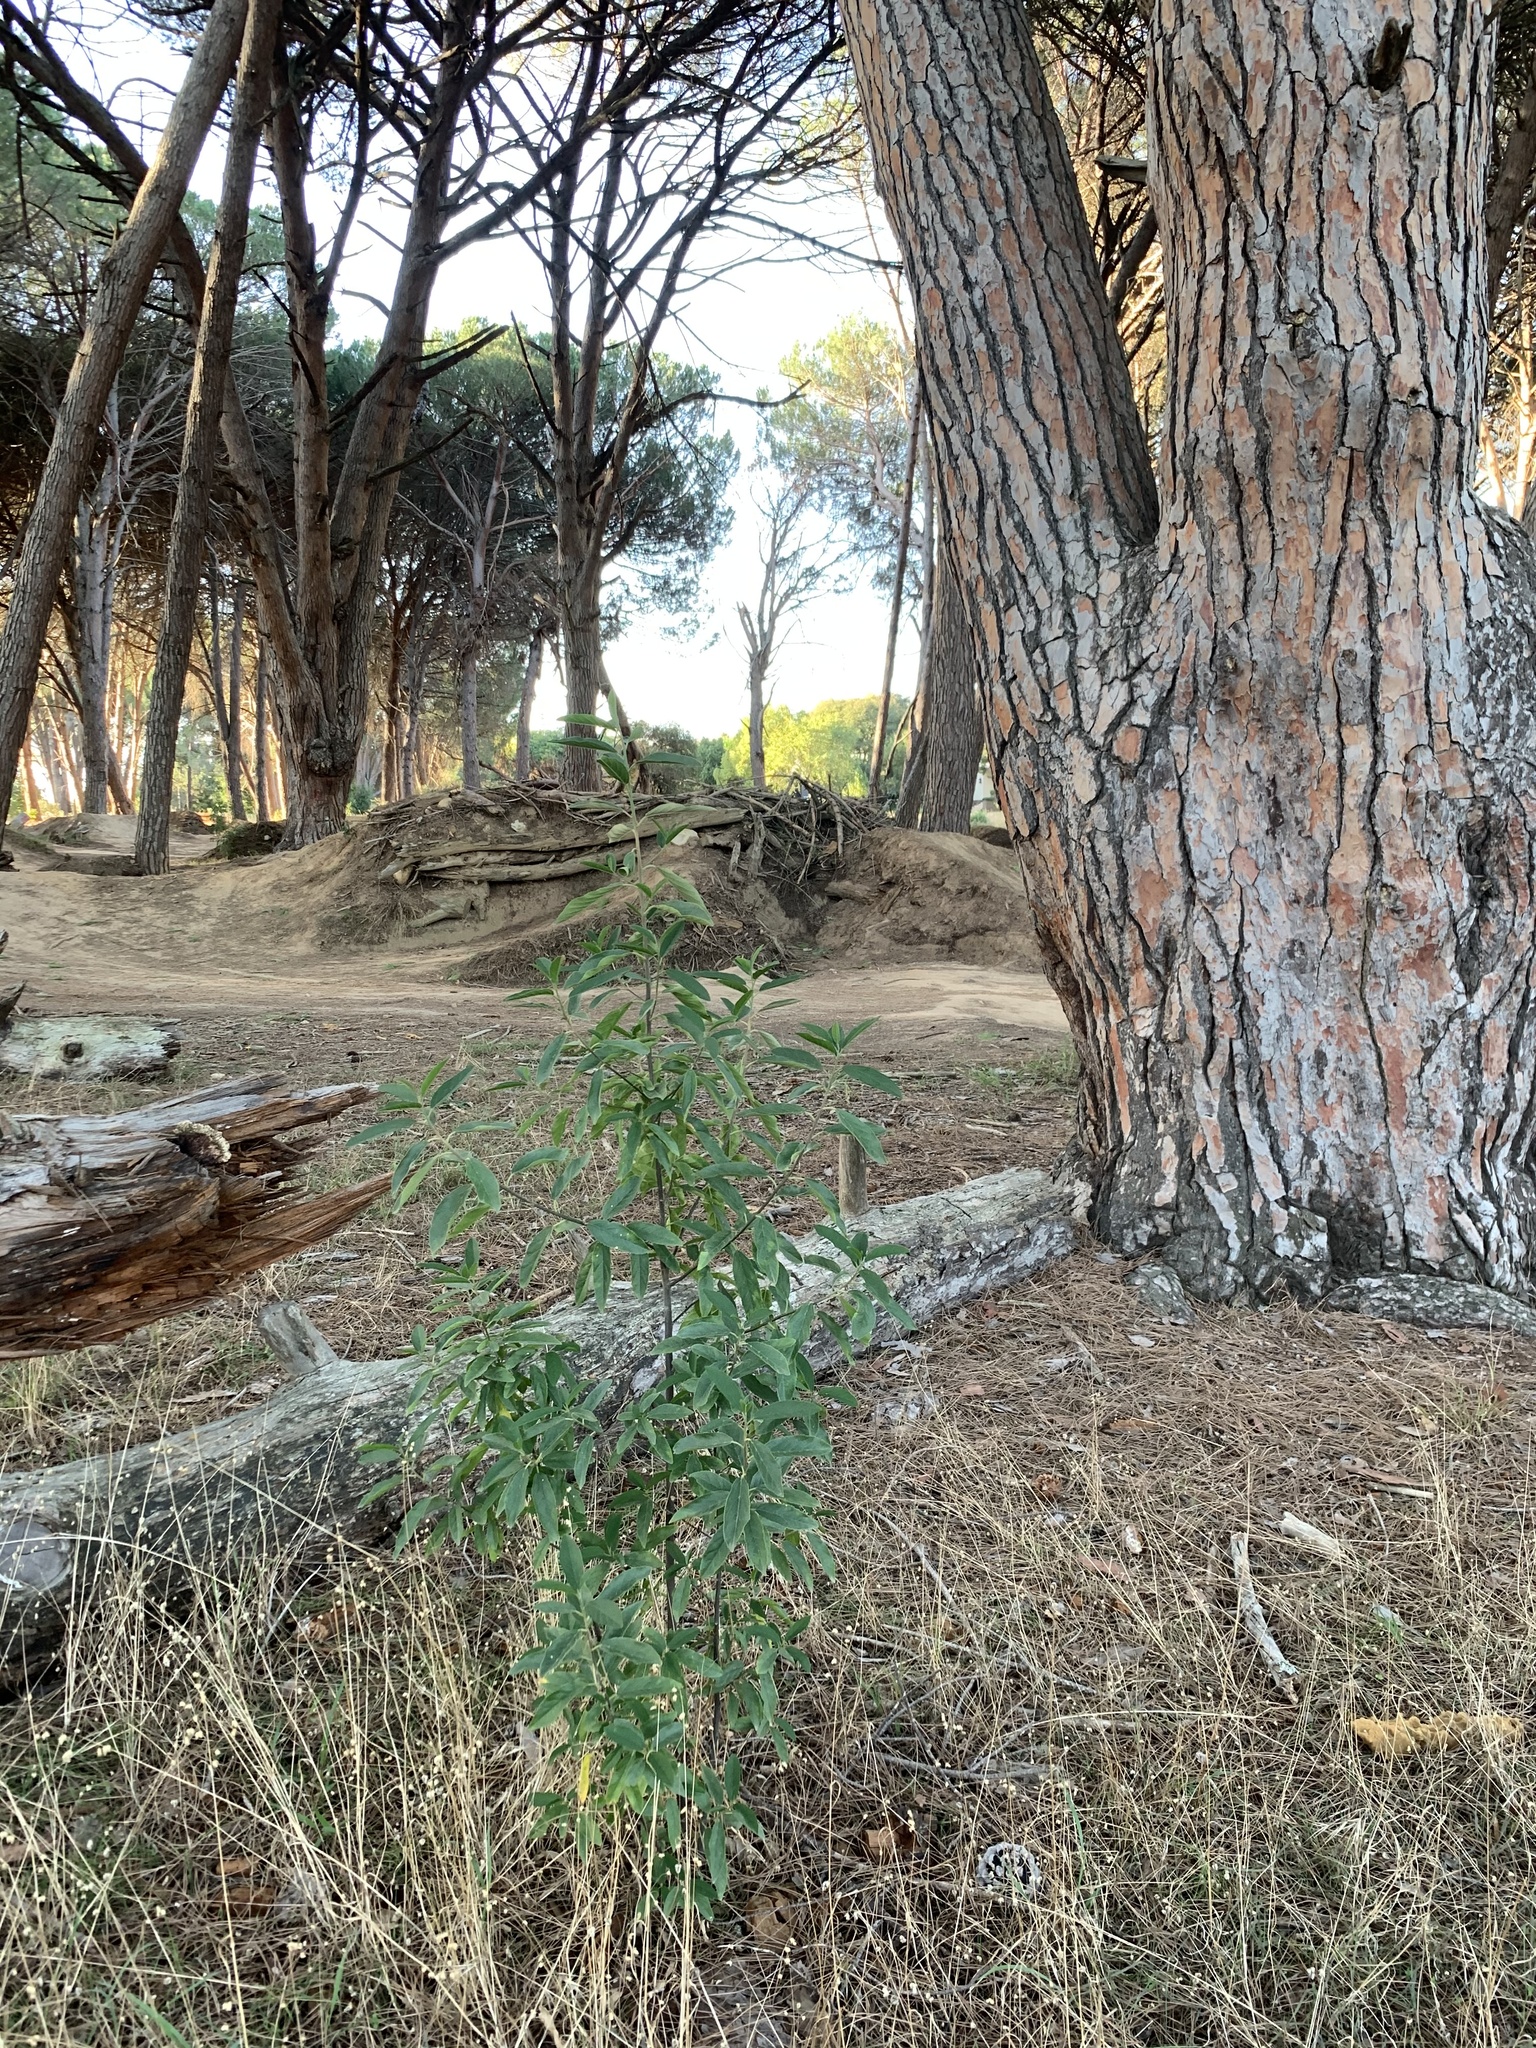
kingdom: Plantae
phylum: Tracheophyta
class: Magnoliopsida
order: Malpighiales
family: Achariaceae
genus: Kiggelaria
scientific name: Kiggelaria africana
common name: Wild peach
